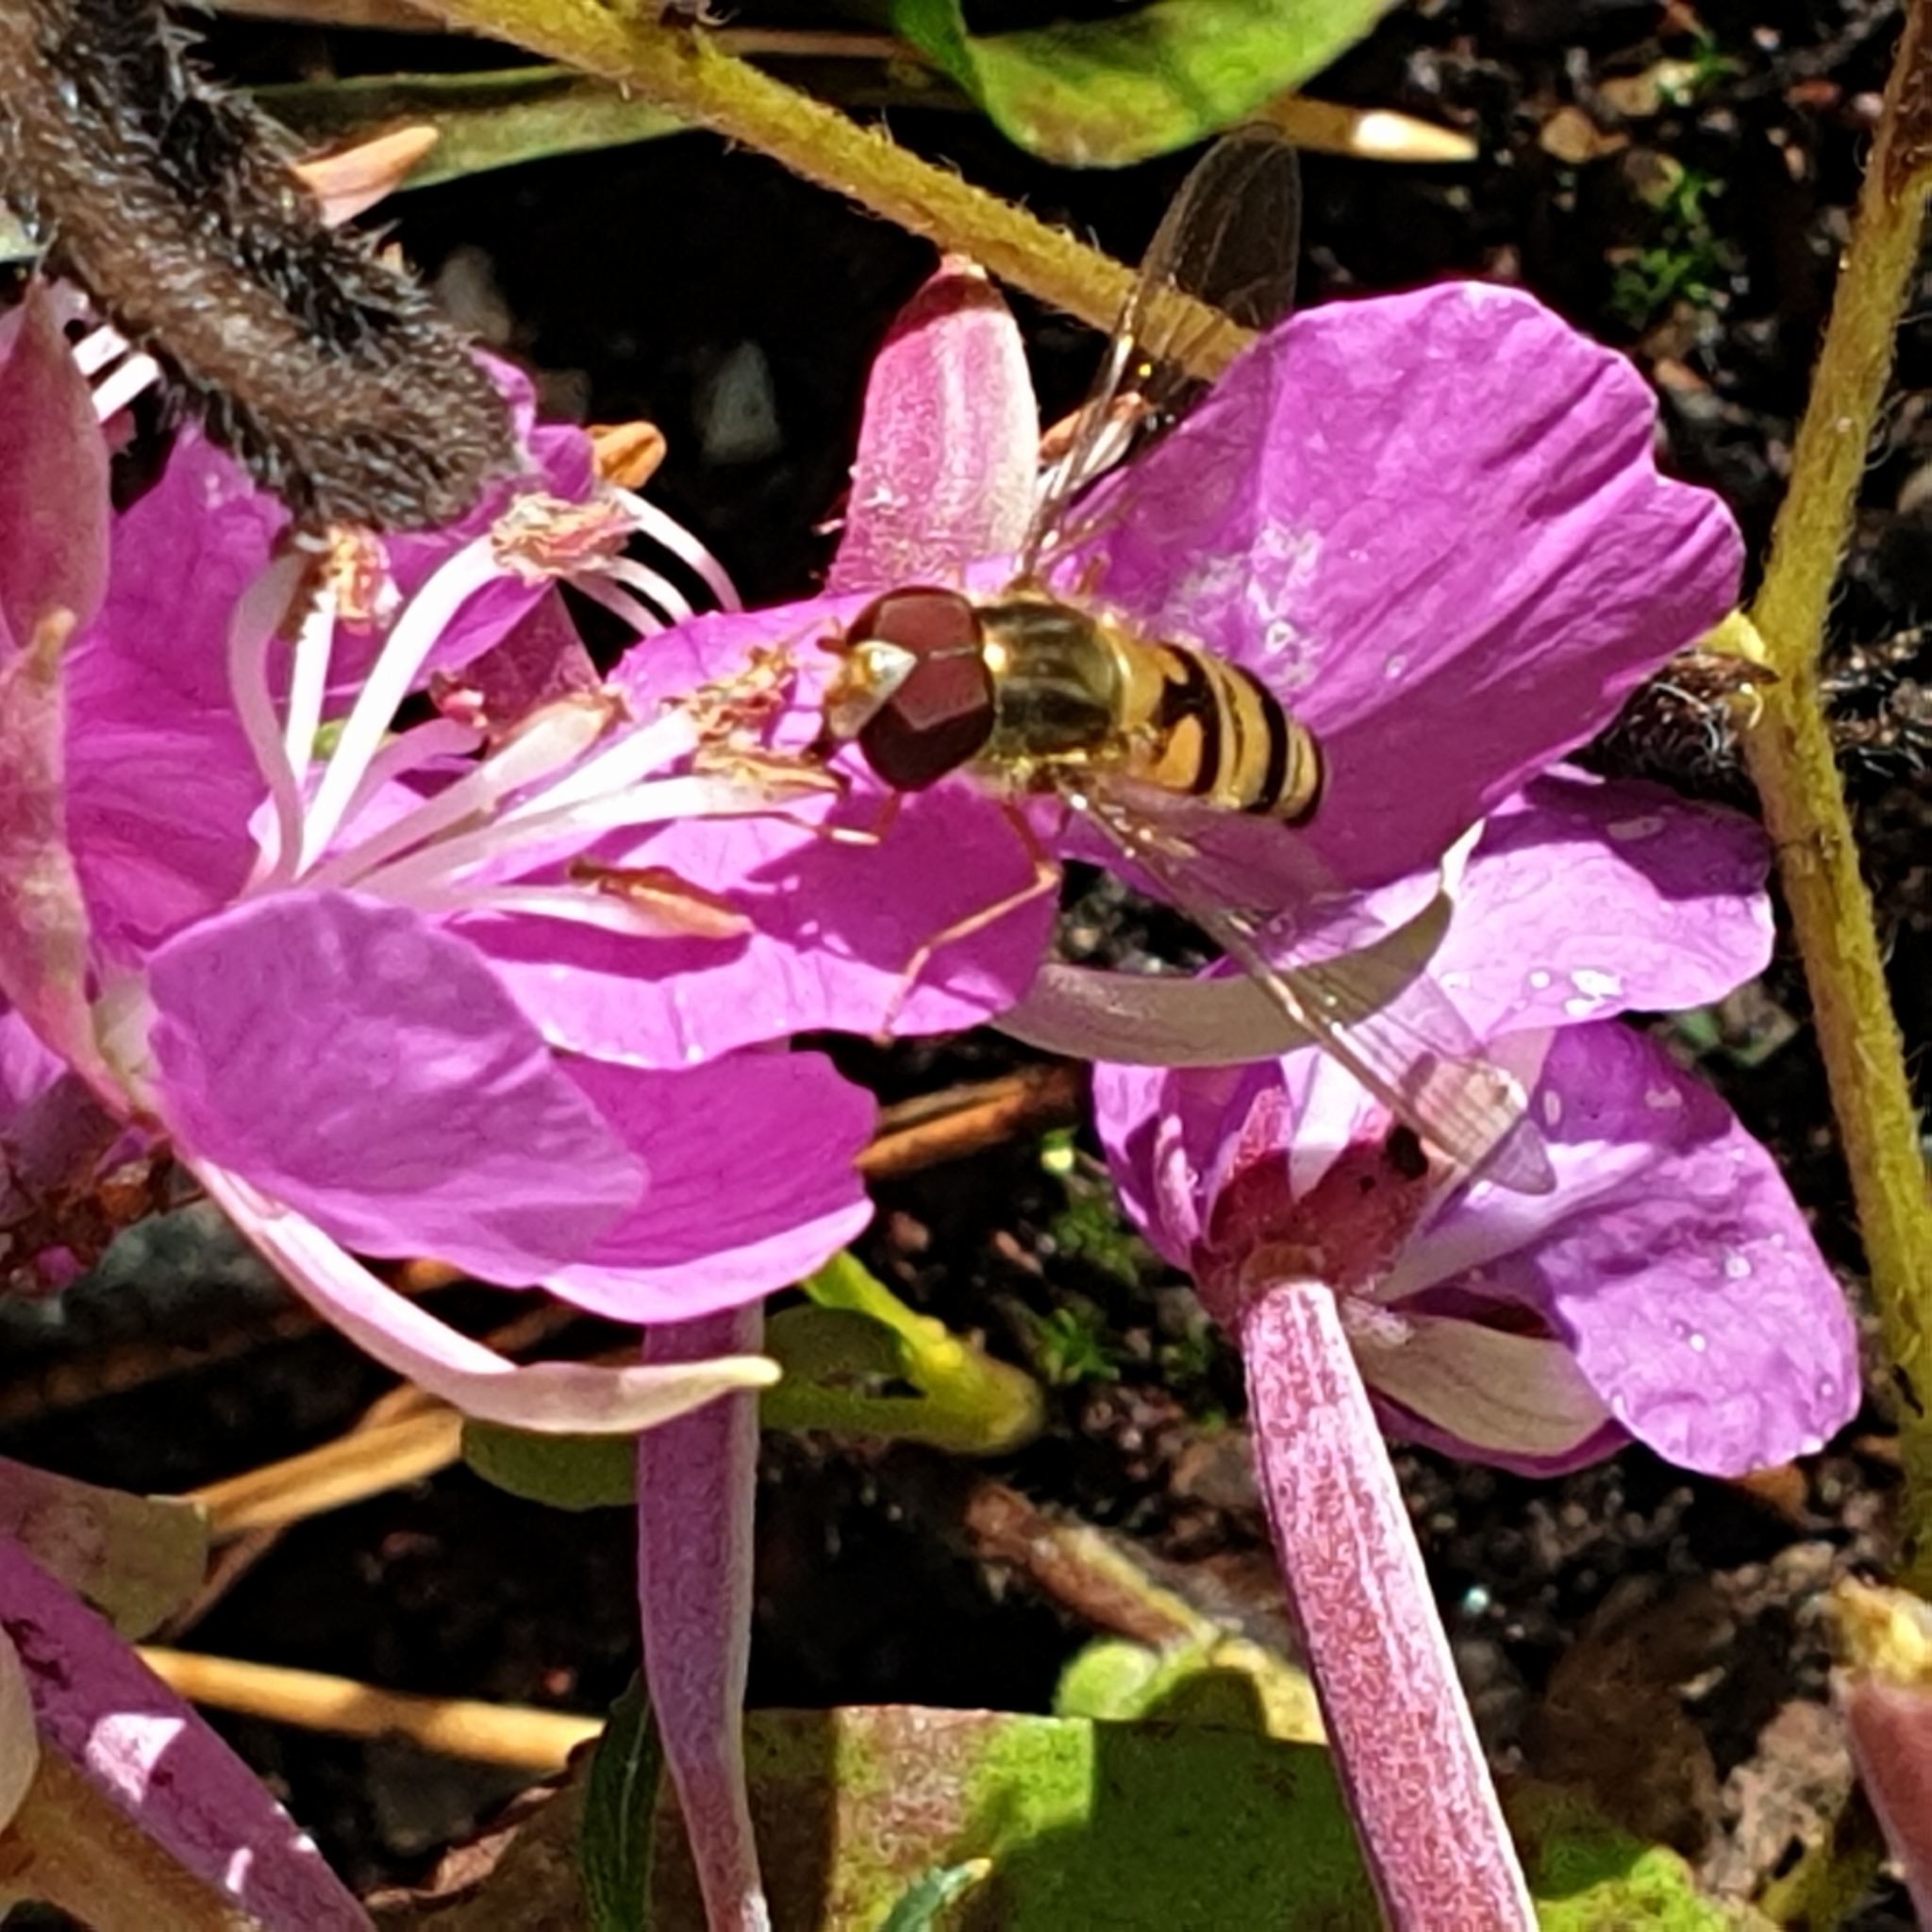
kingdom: Animalia
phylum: Arthropoda
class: Insecta
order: Diptera
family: Syrphidae
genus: Episyrphus
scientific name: Episyrphus balteatus
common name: Marmalade hoverfly
